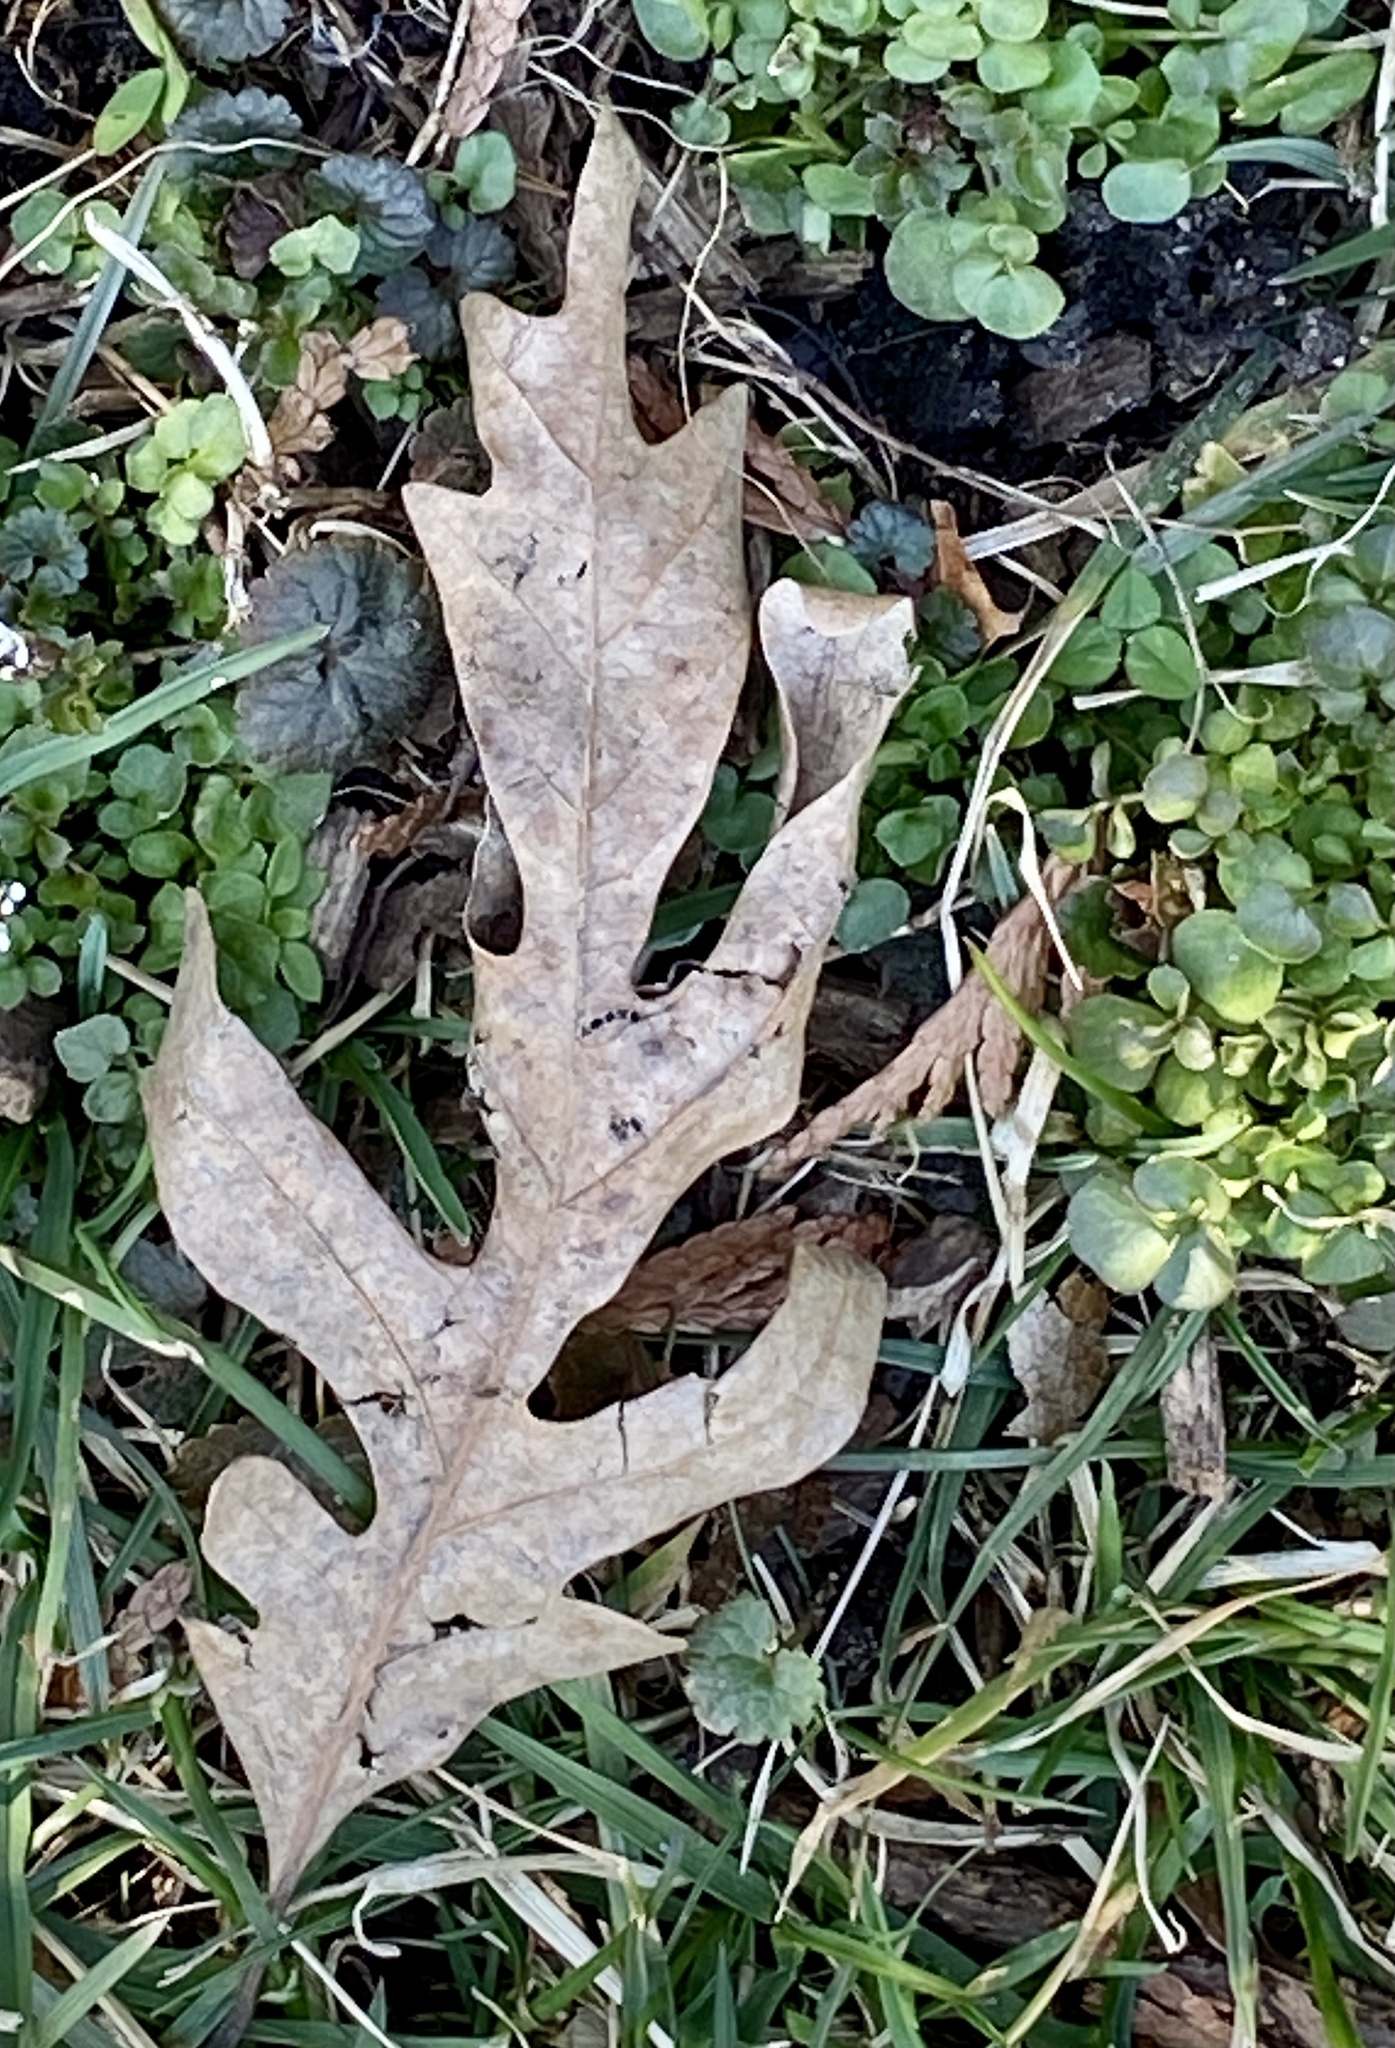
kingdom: Plantae
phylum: Tracheophyta
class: Magnoliopsida
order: Fagales
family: Fagaceae
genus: Quercus
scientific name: Quercus alba
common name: White oak
